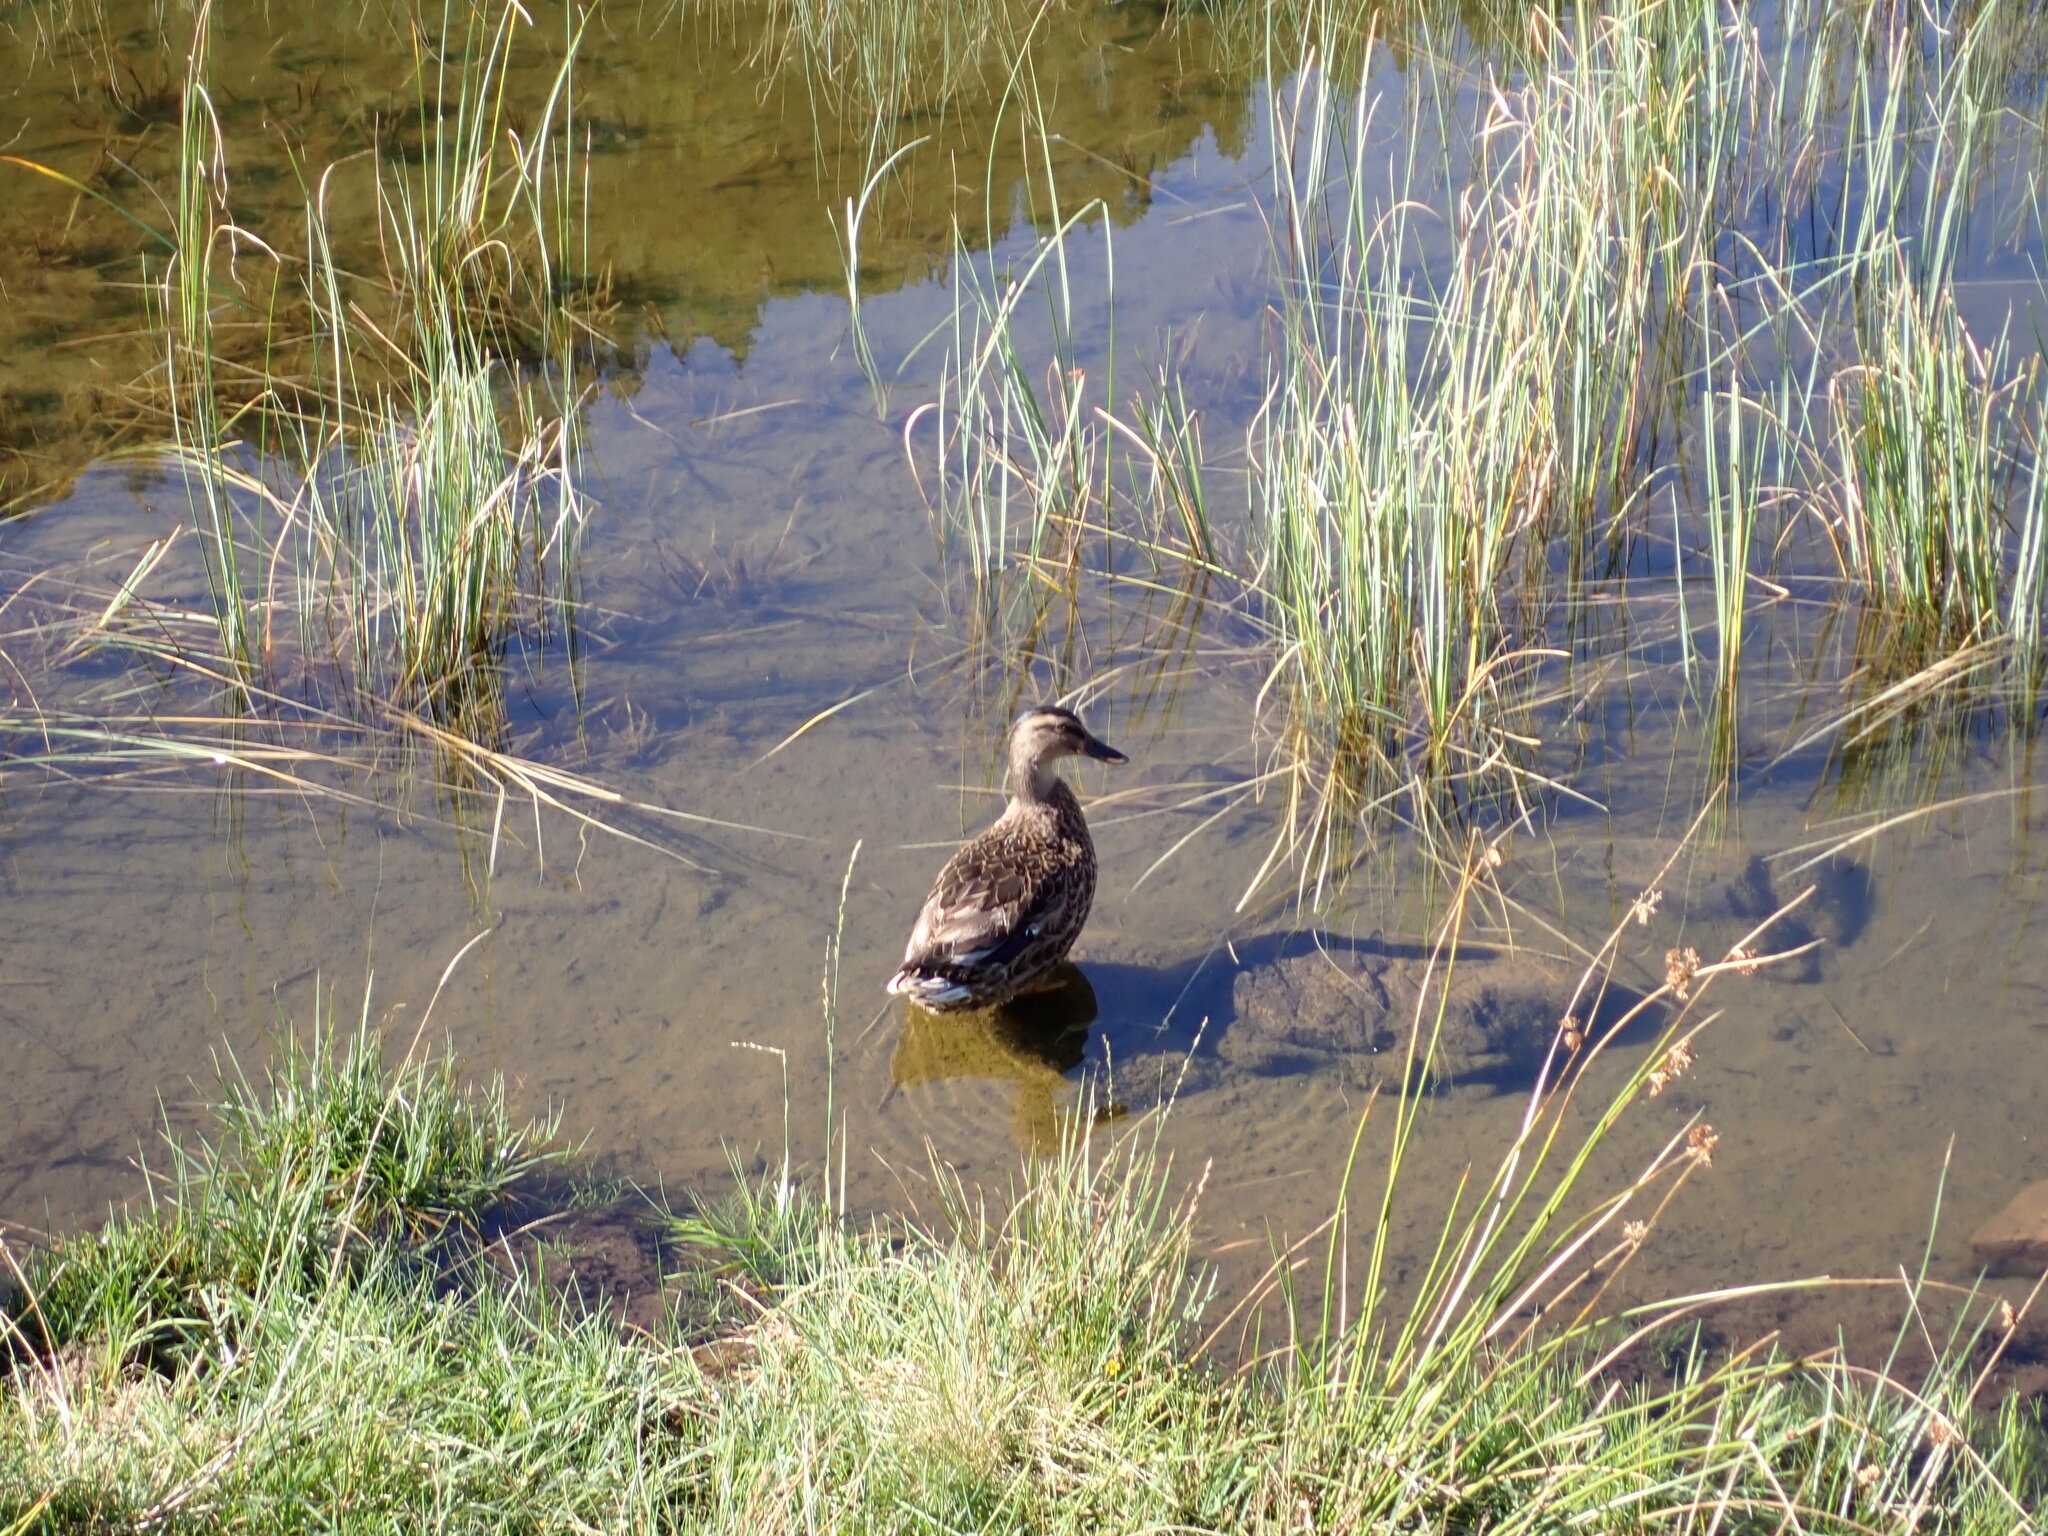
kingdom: Animalia
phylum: Chordata
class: Aves
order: Anseriformes
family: Anatidae
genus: Anas
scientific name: Anas platyrhynchos
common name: Mallard
